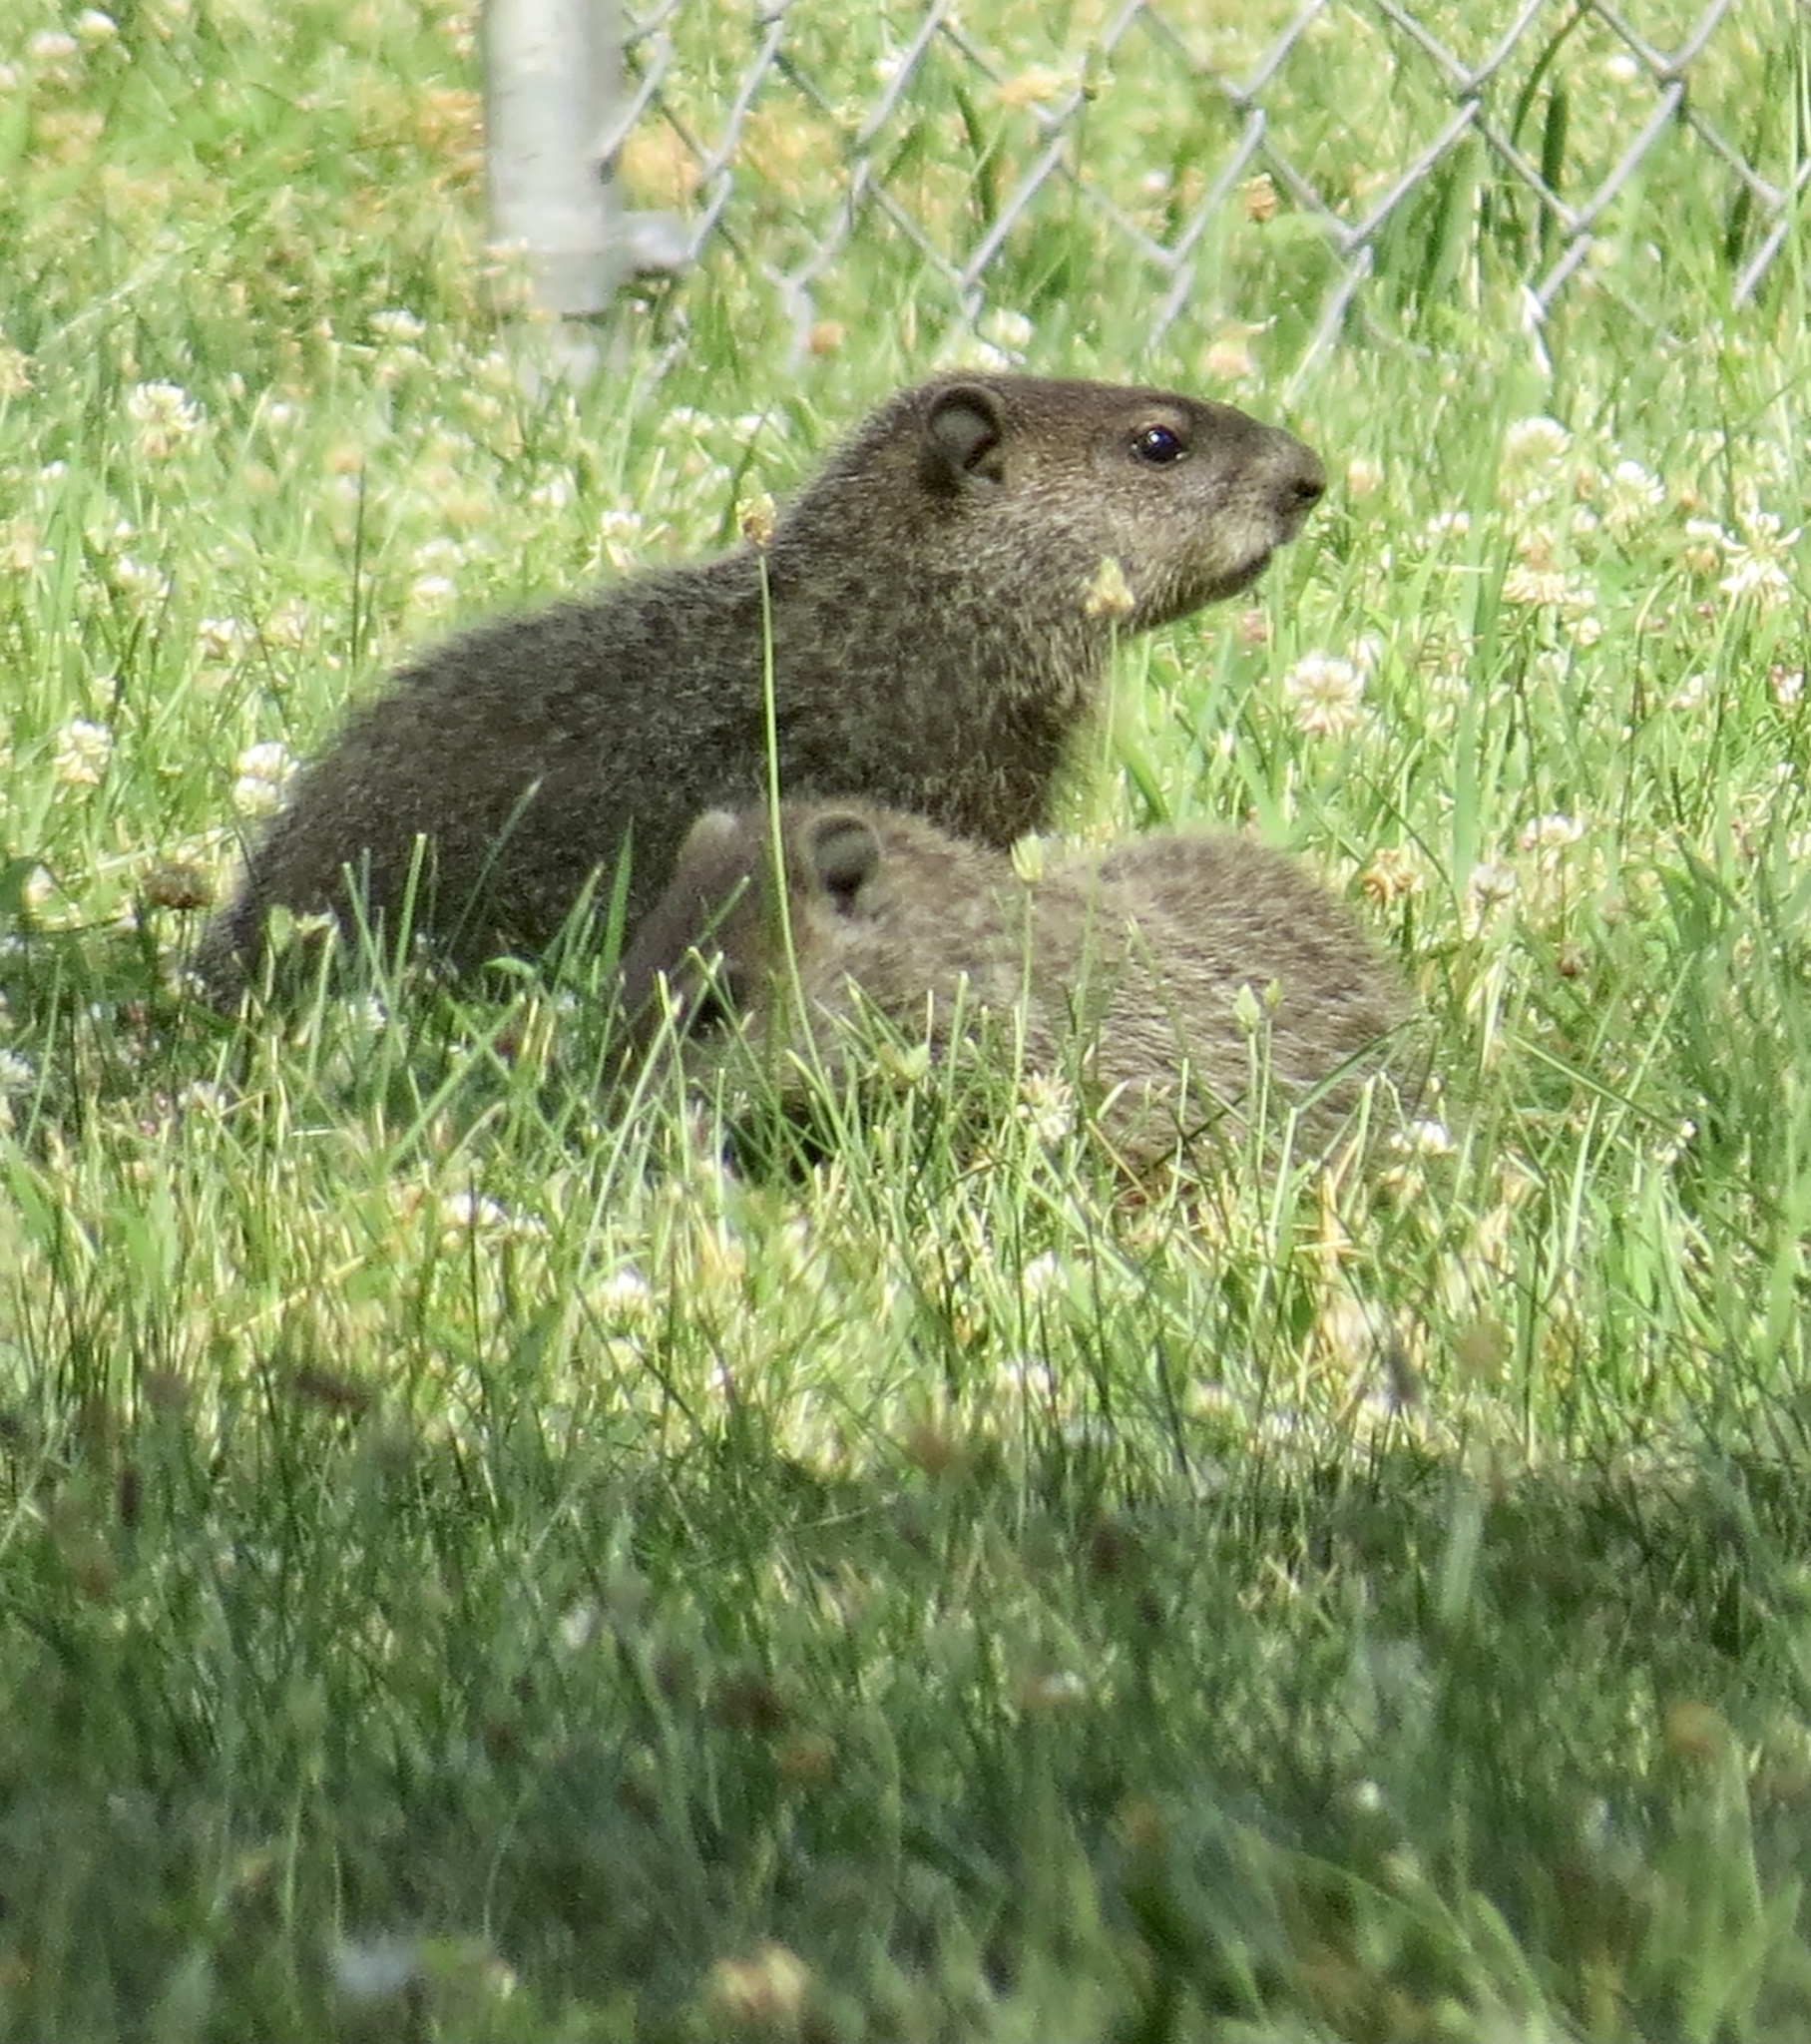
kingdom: Animalia
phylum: Chordata
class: Mammalia
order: Rodentia
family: Sciuridae
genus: Marmota
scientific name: Marmota monax
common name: Groundhog
